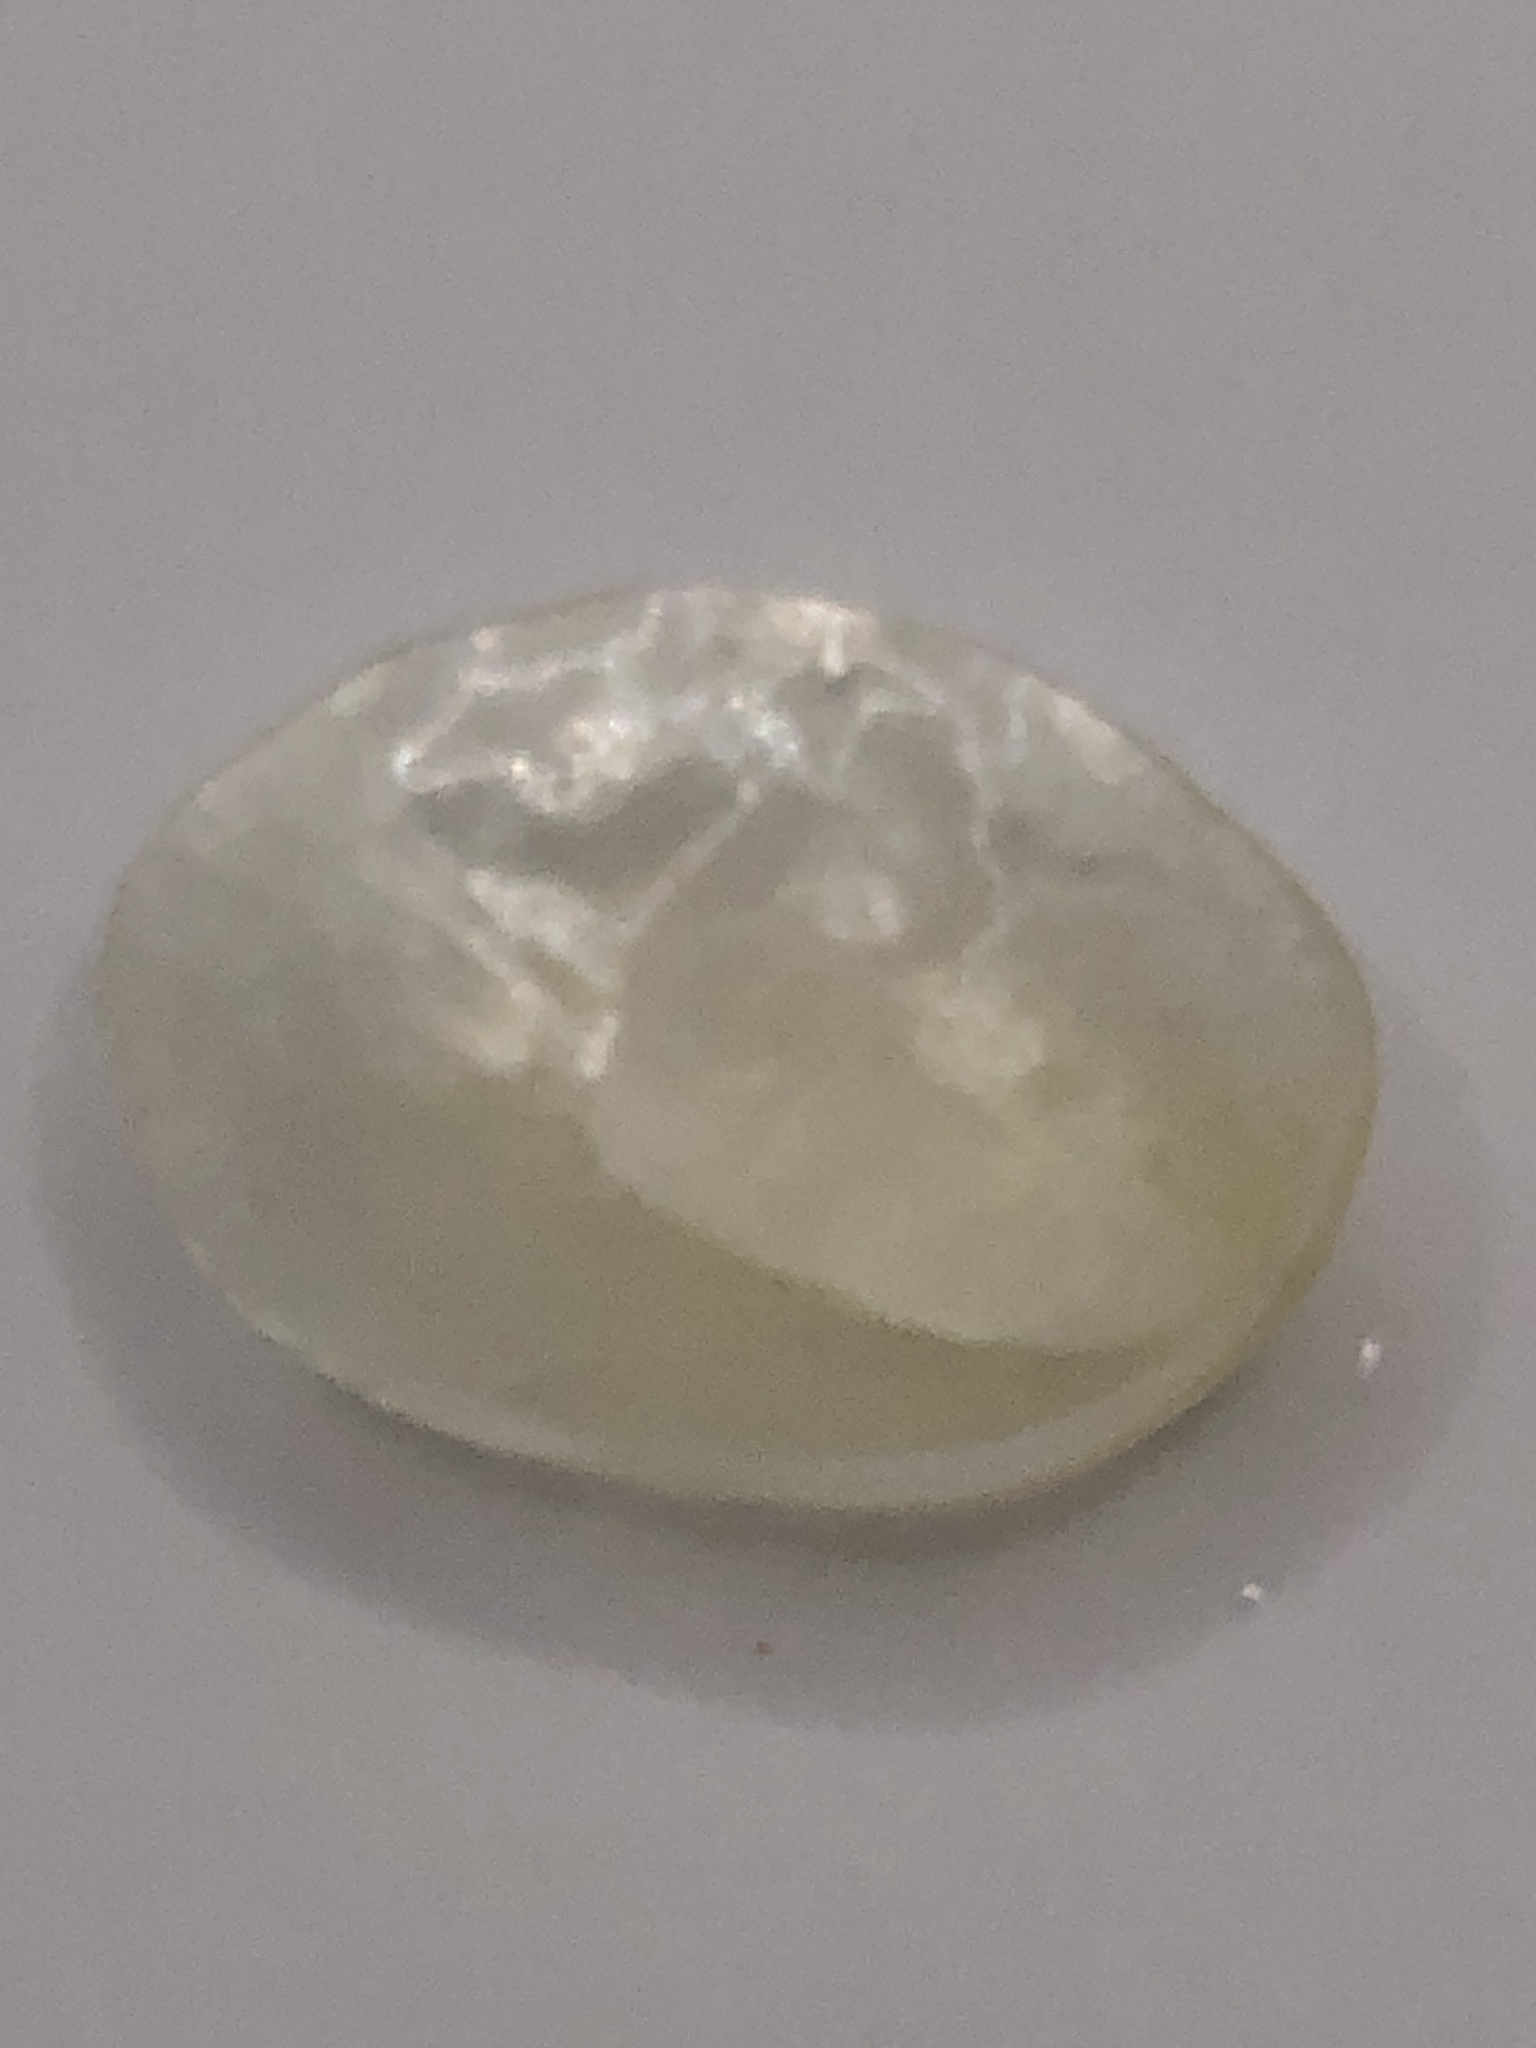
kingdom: Animalia
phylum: Mollusca
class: Bivalvia
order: Pectinida
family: Anomiidae
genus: Anomia
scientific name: Anomia simplex
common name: Common jingle shell
